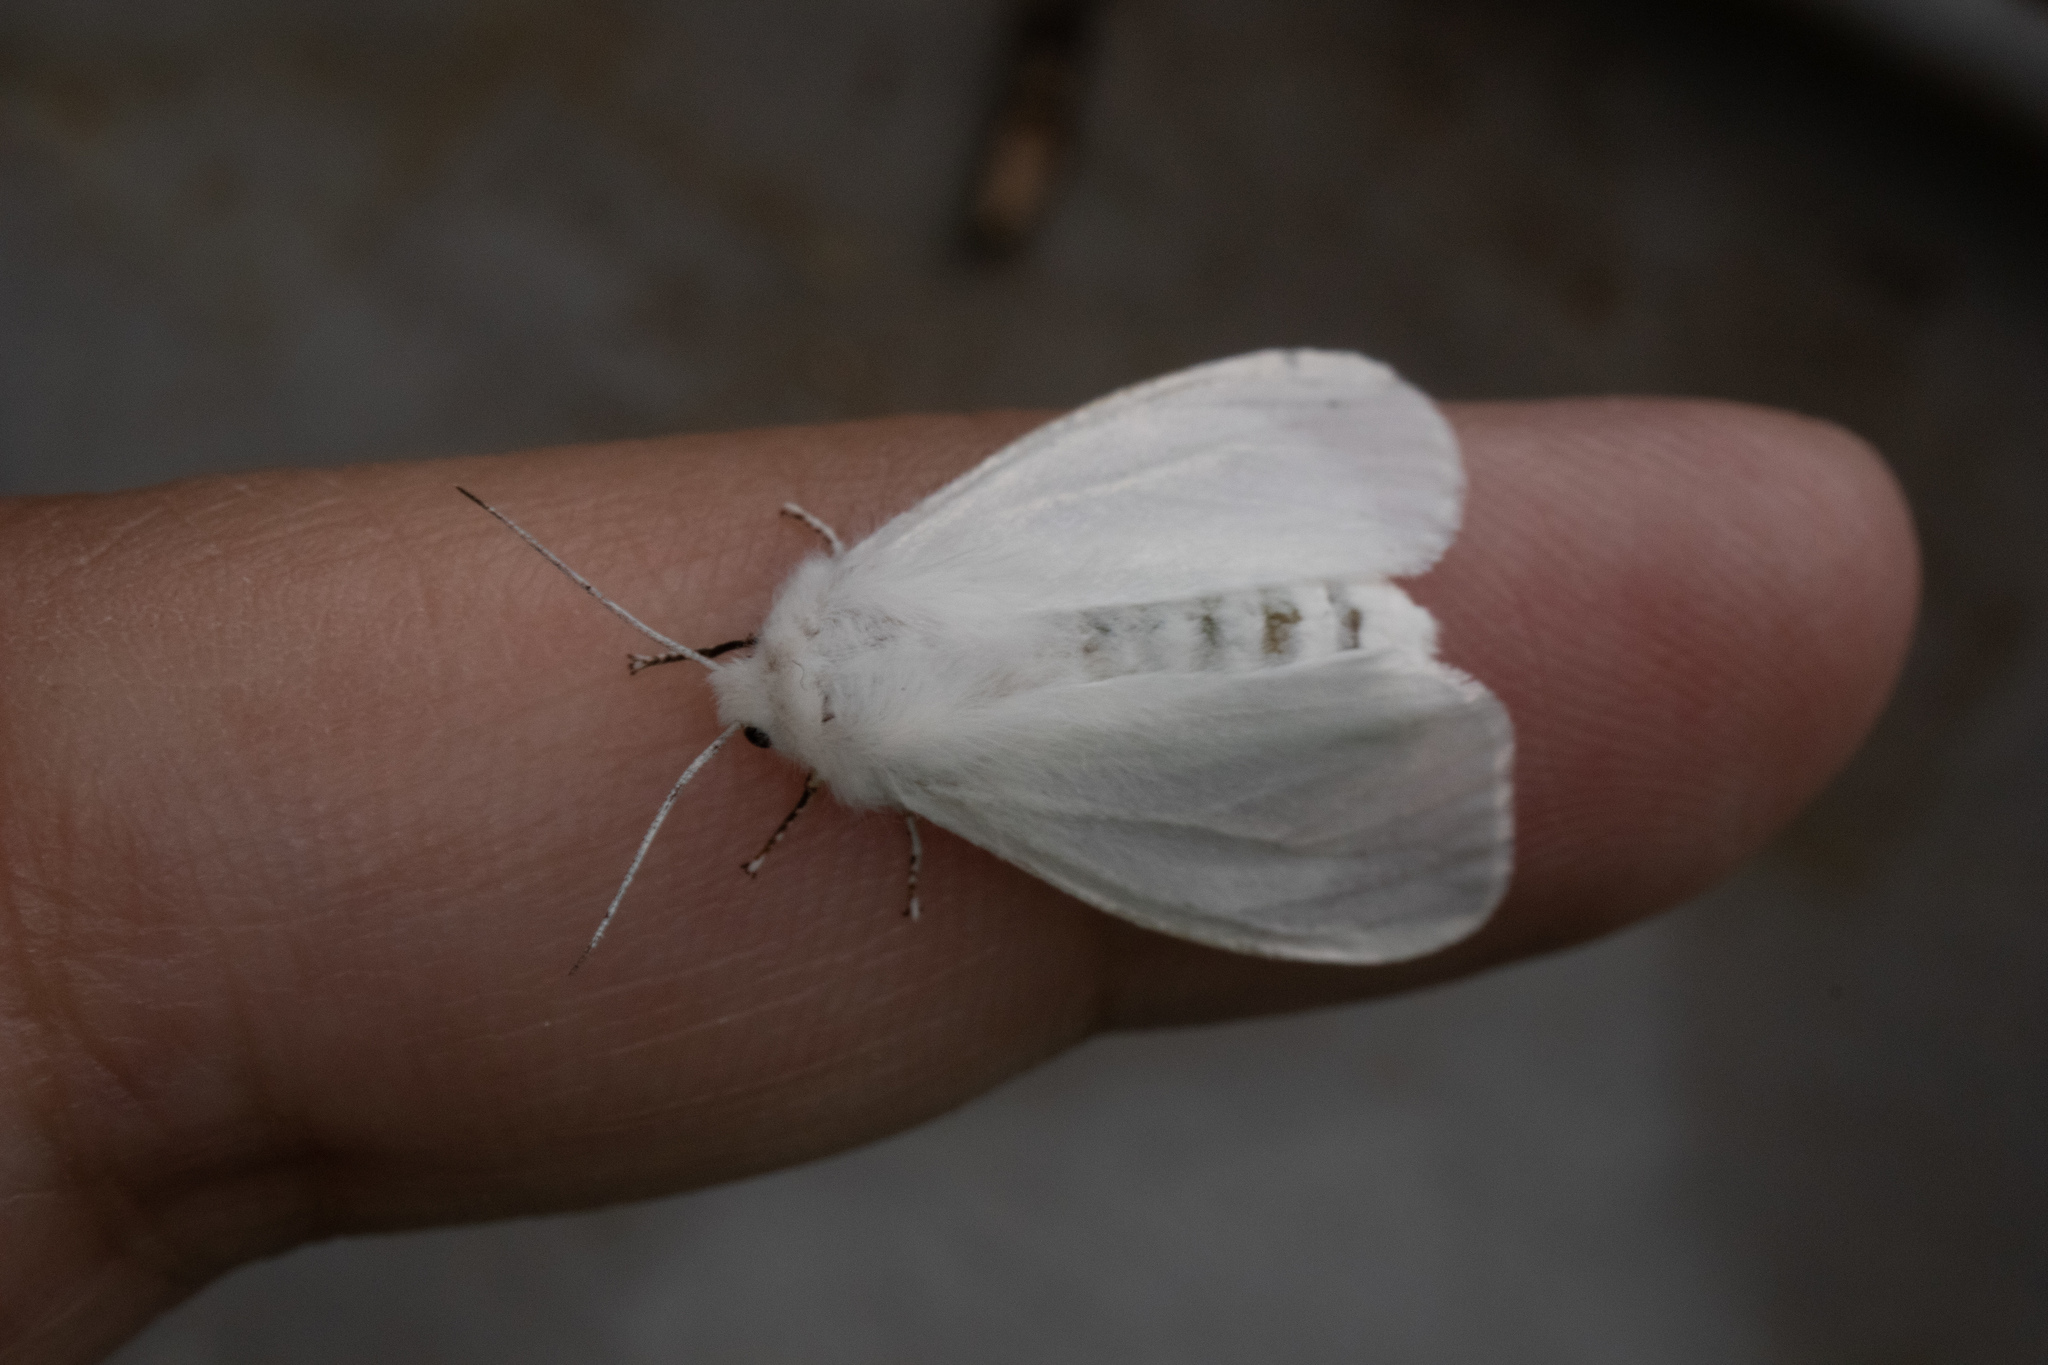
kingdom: Animalia
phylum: Arthropoda
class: Insecta
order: Lepidoptera
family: Erebidae
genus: Spilosoma
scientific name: Spilosoma congrua
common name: Agreeable tiger moth
